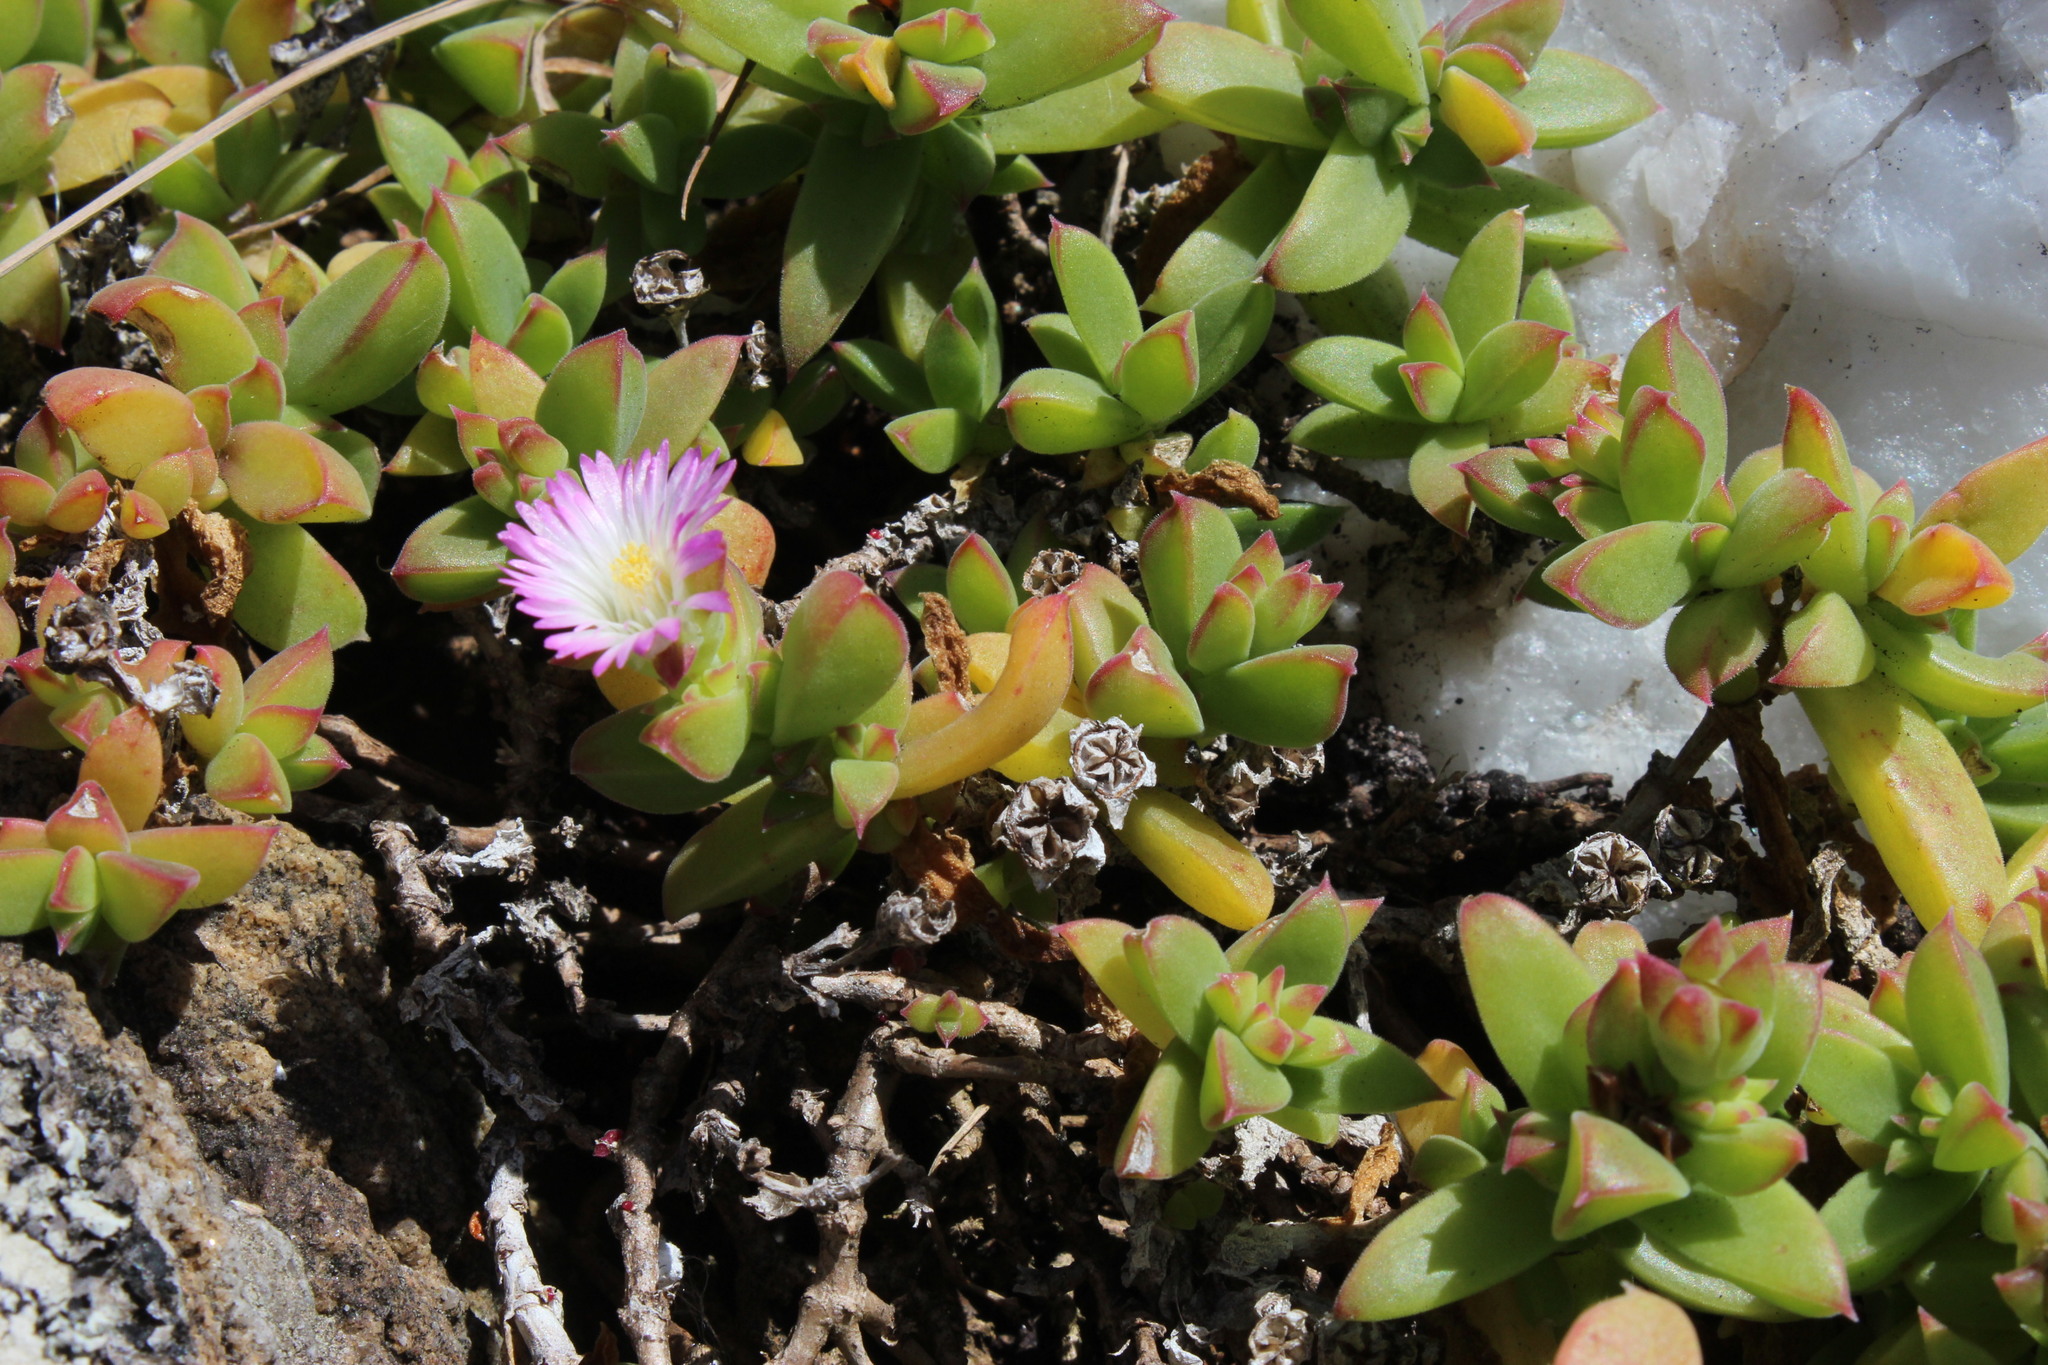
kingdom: Plantae
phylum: Tracheophyta
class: Magnoliopsida
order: Caryophyllales
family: Aizoaceae
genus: Delosperma
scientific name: Delosperma patersoniae
